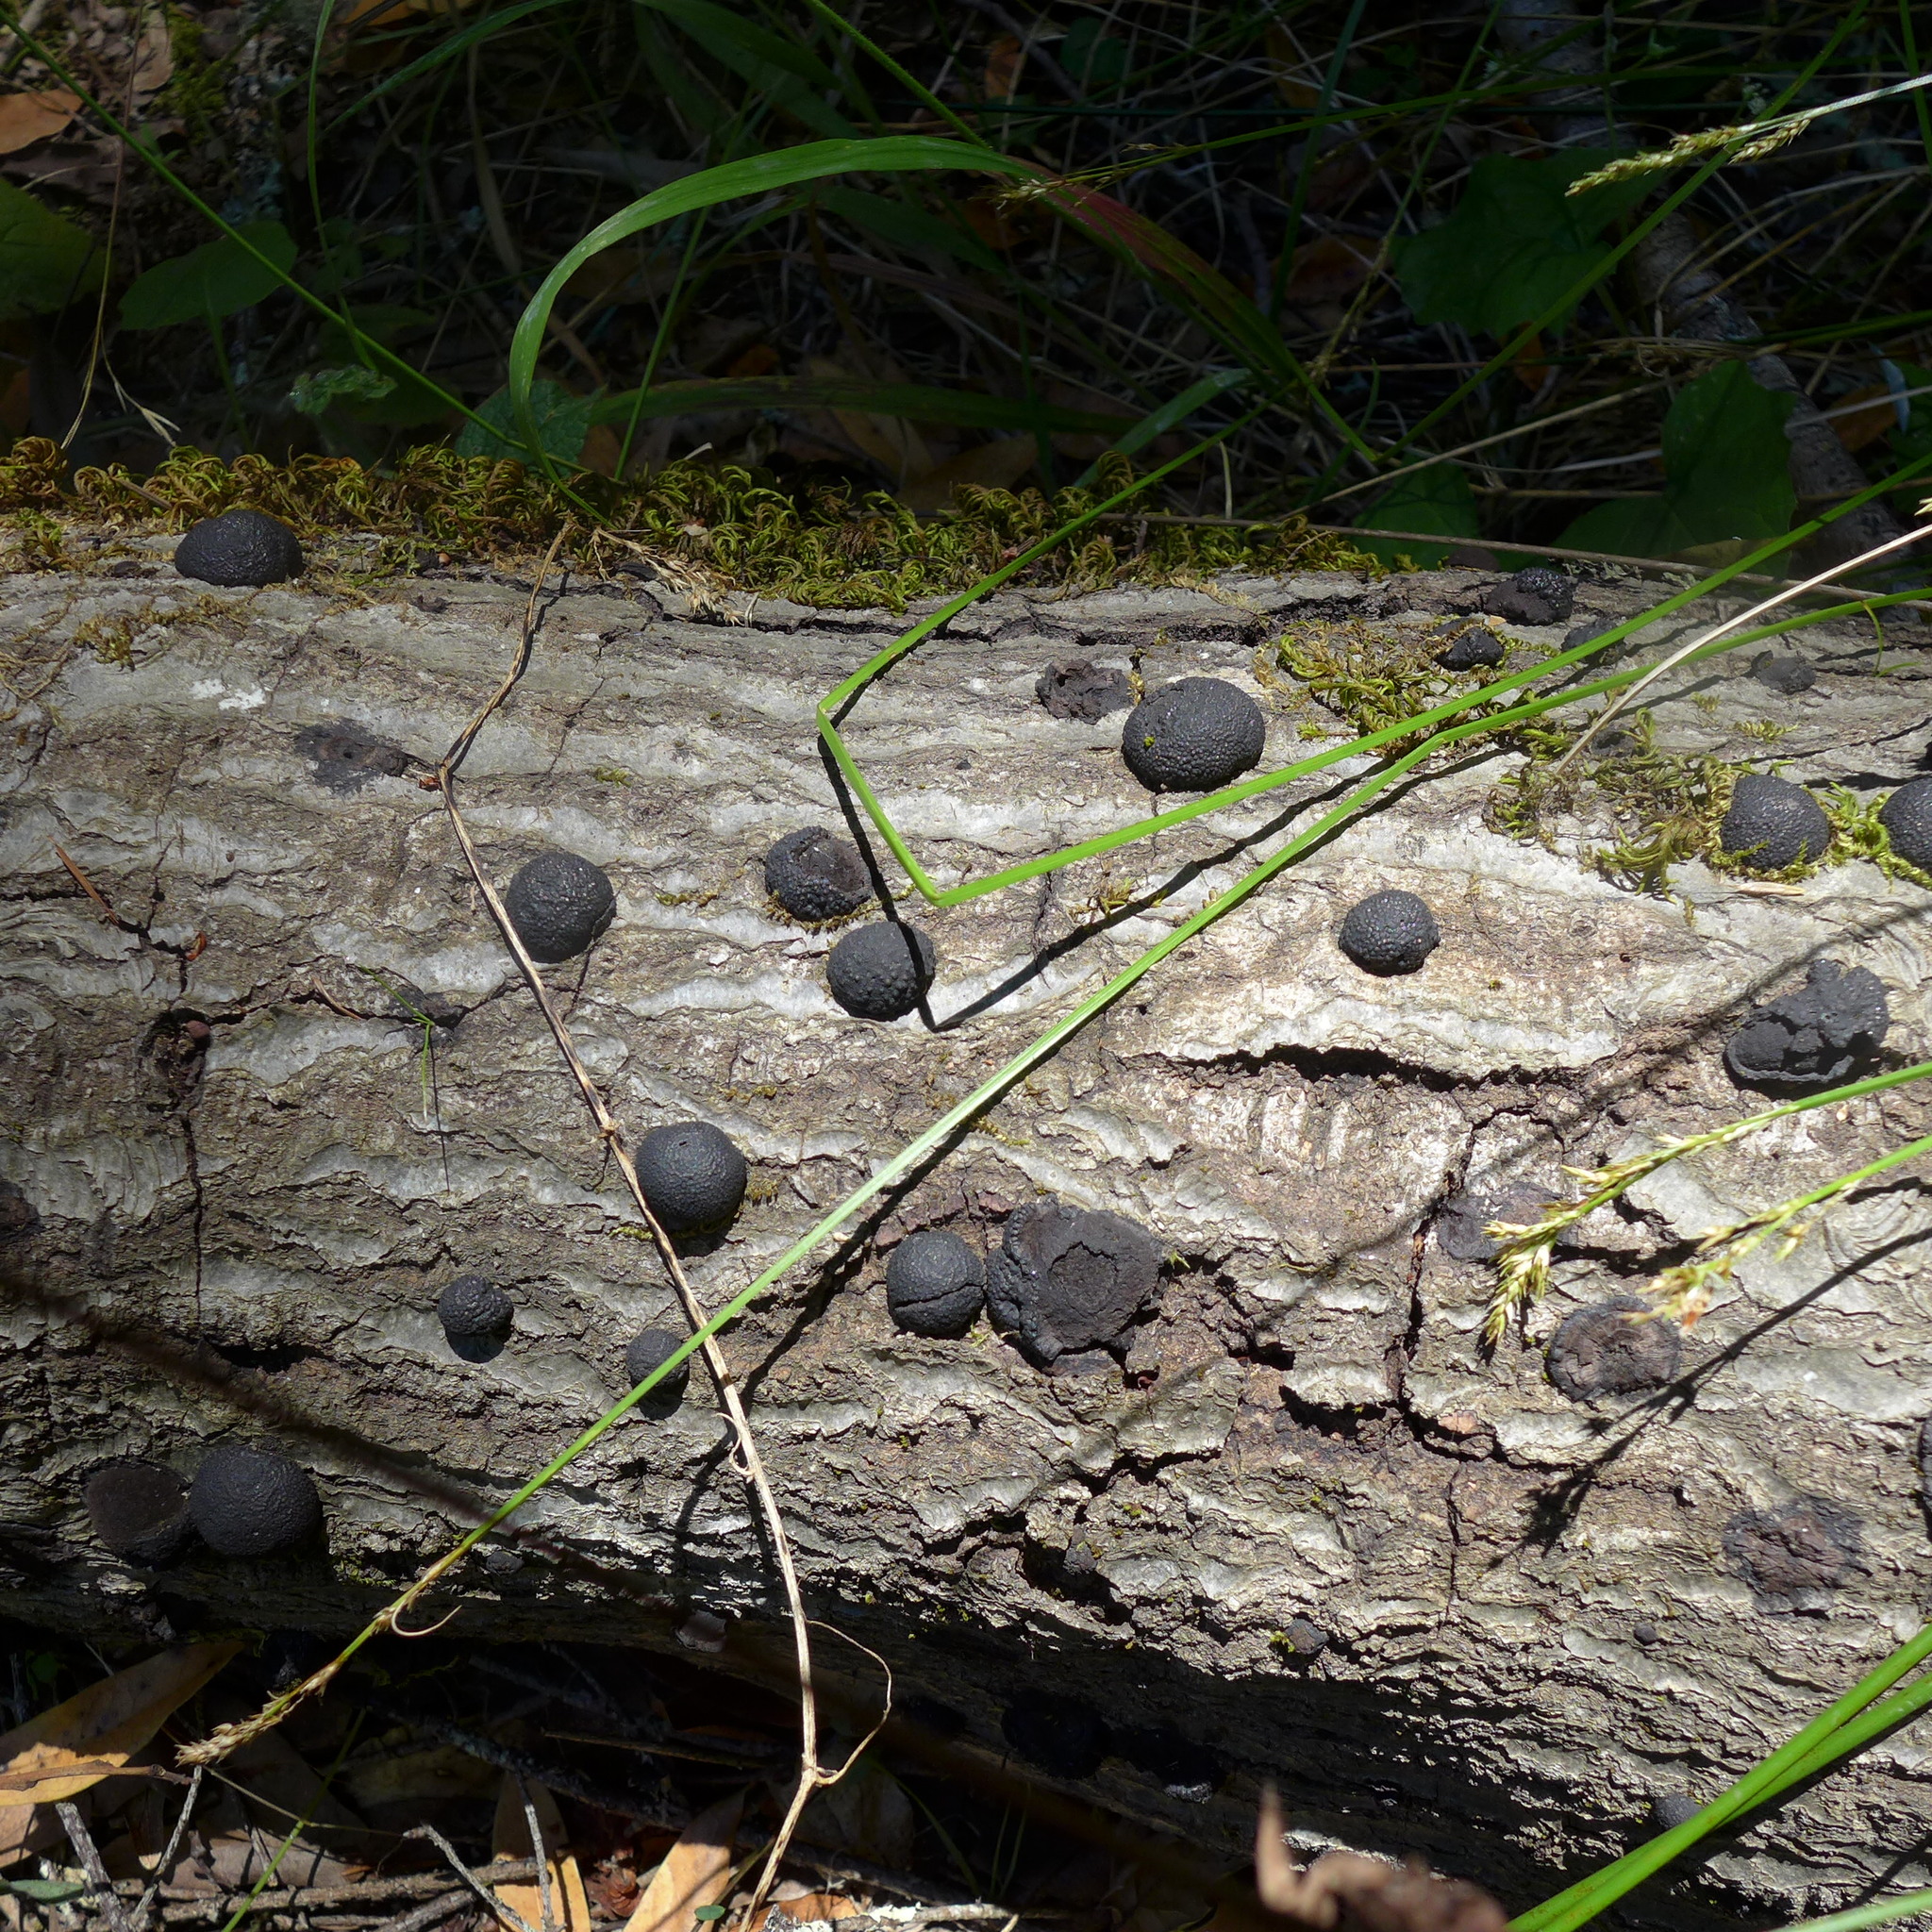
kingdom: Fungi
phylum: Ascomycota
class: Sordariomycetes
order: Xylariales
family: Hypoxylaceae
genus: Annulohypoxylon
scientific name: Annulohypoxylon thouarsianum
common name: Cramp balls
